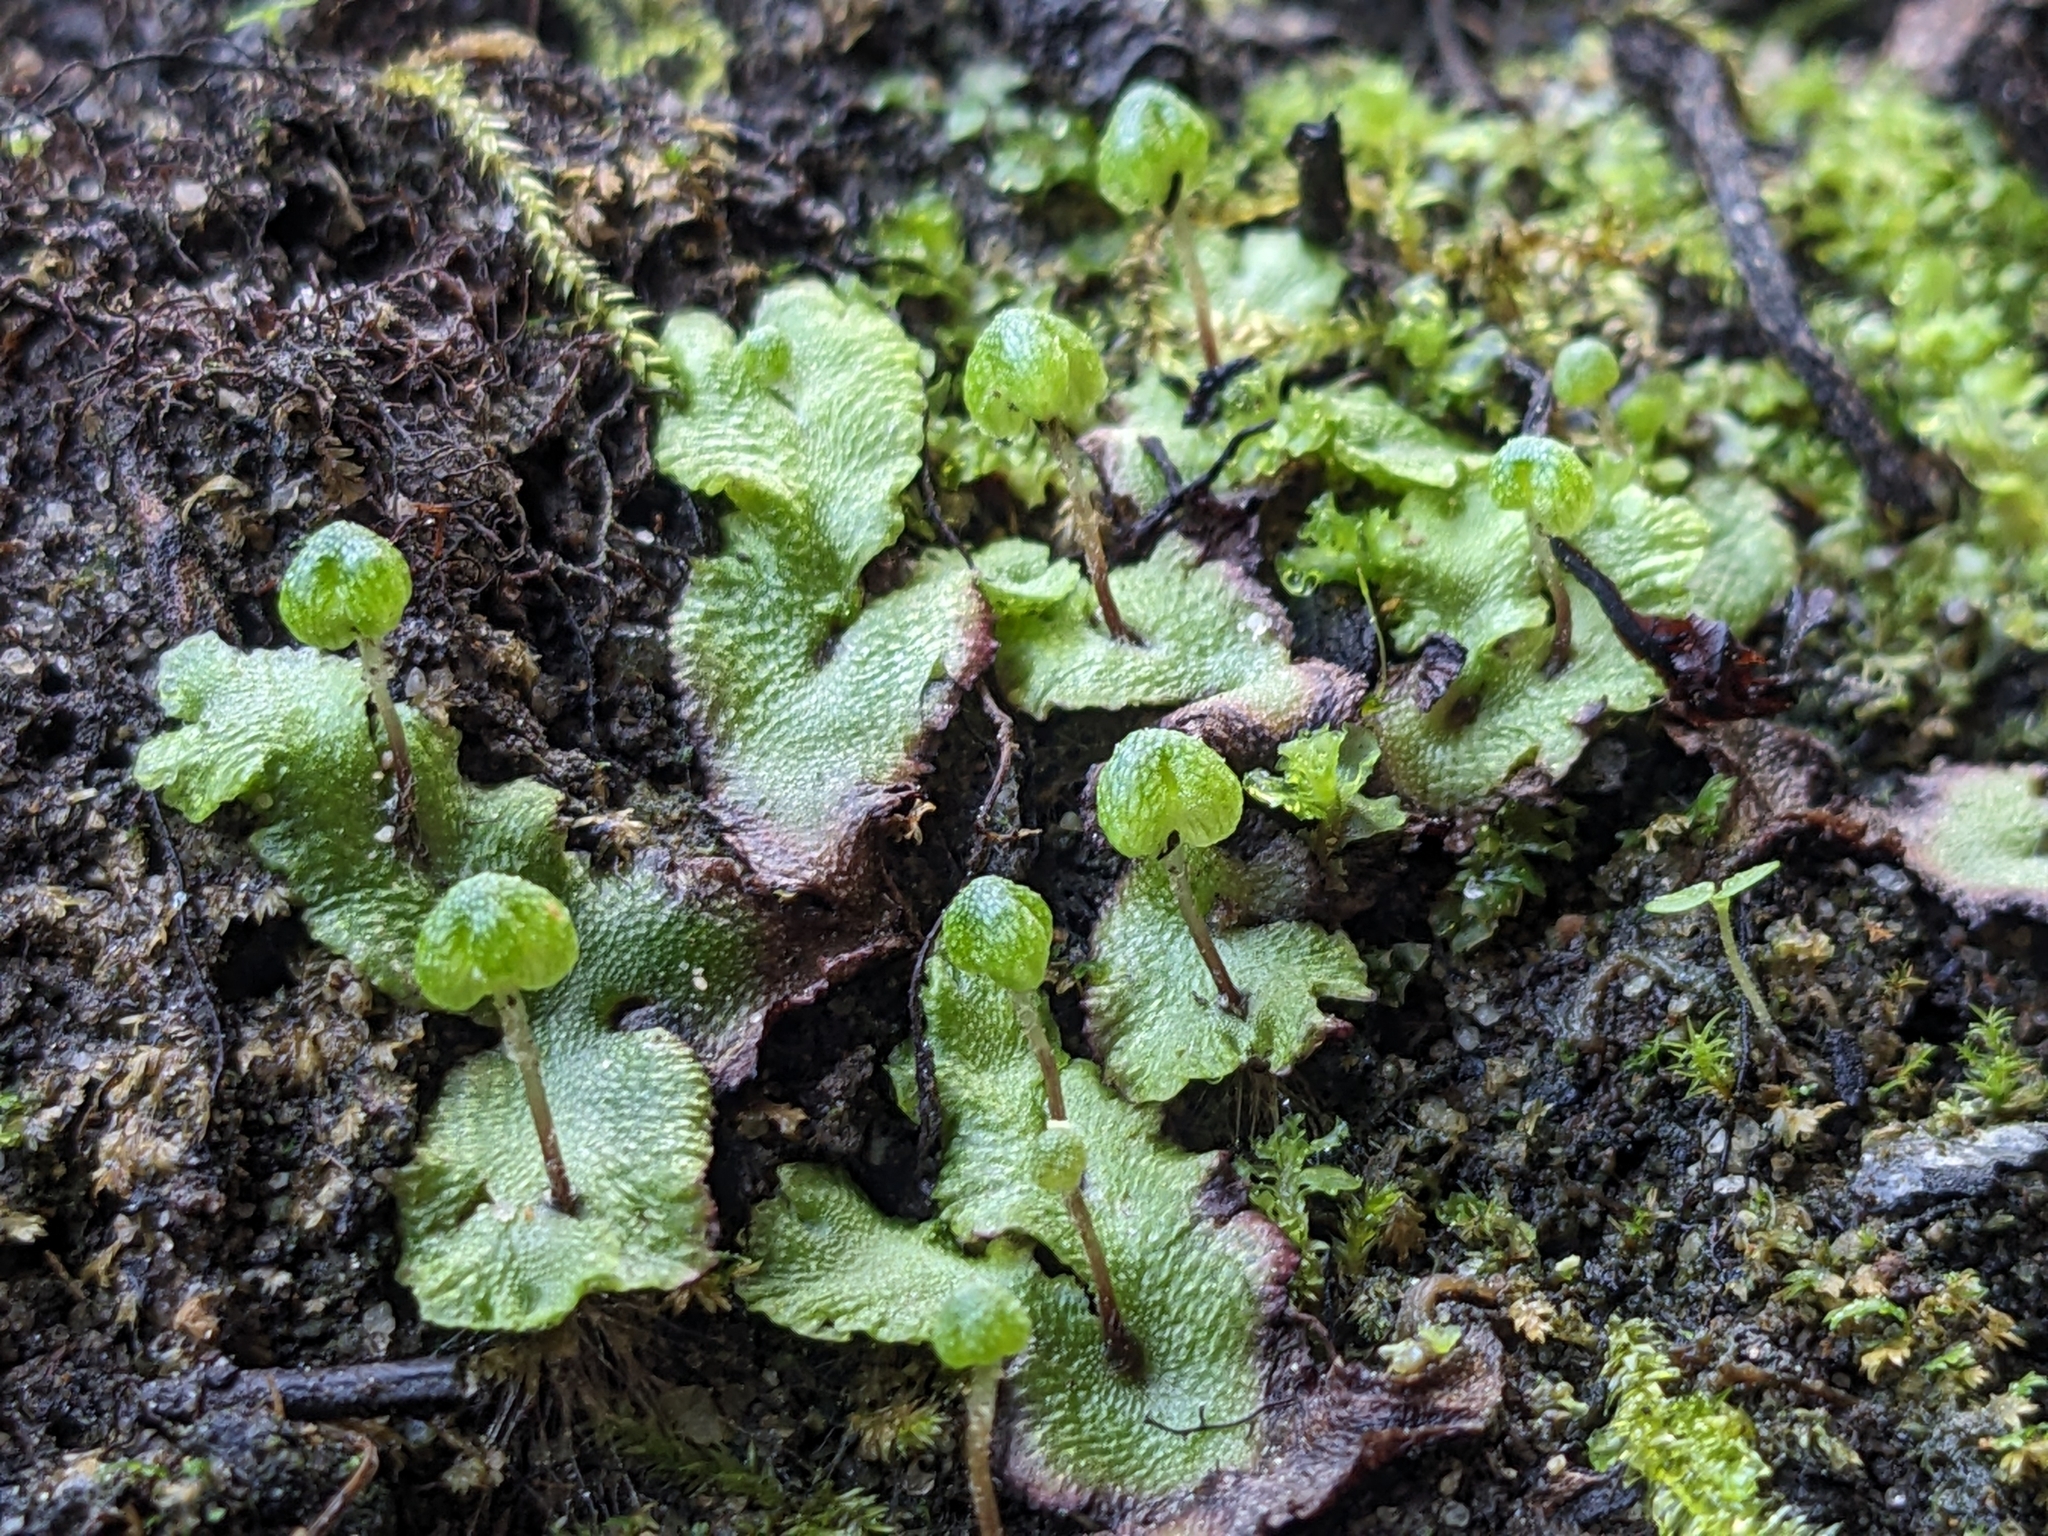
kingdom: Plantae
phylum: Marchantiophyta
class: Marchantiopsida
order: Marchantiales
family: Aytoniaceae
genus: Asterella
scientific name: Asterella californica
